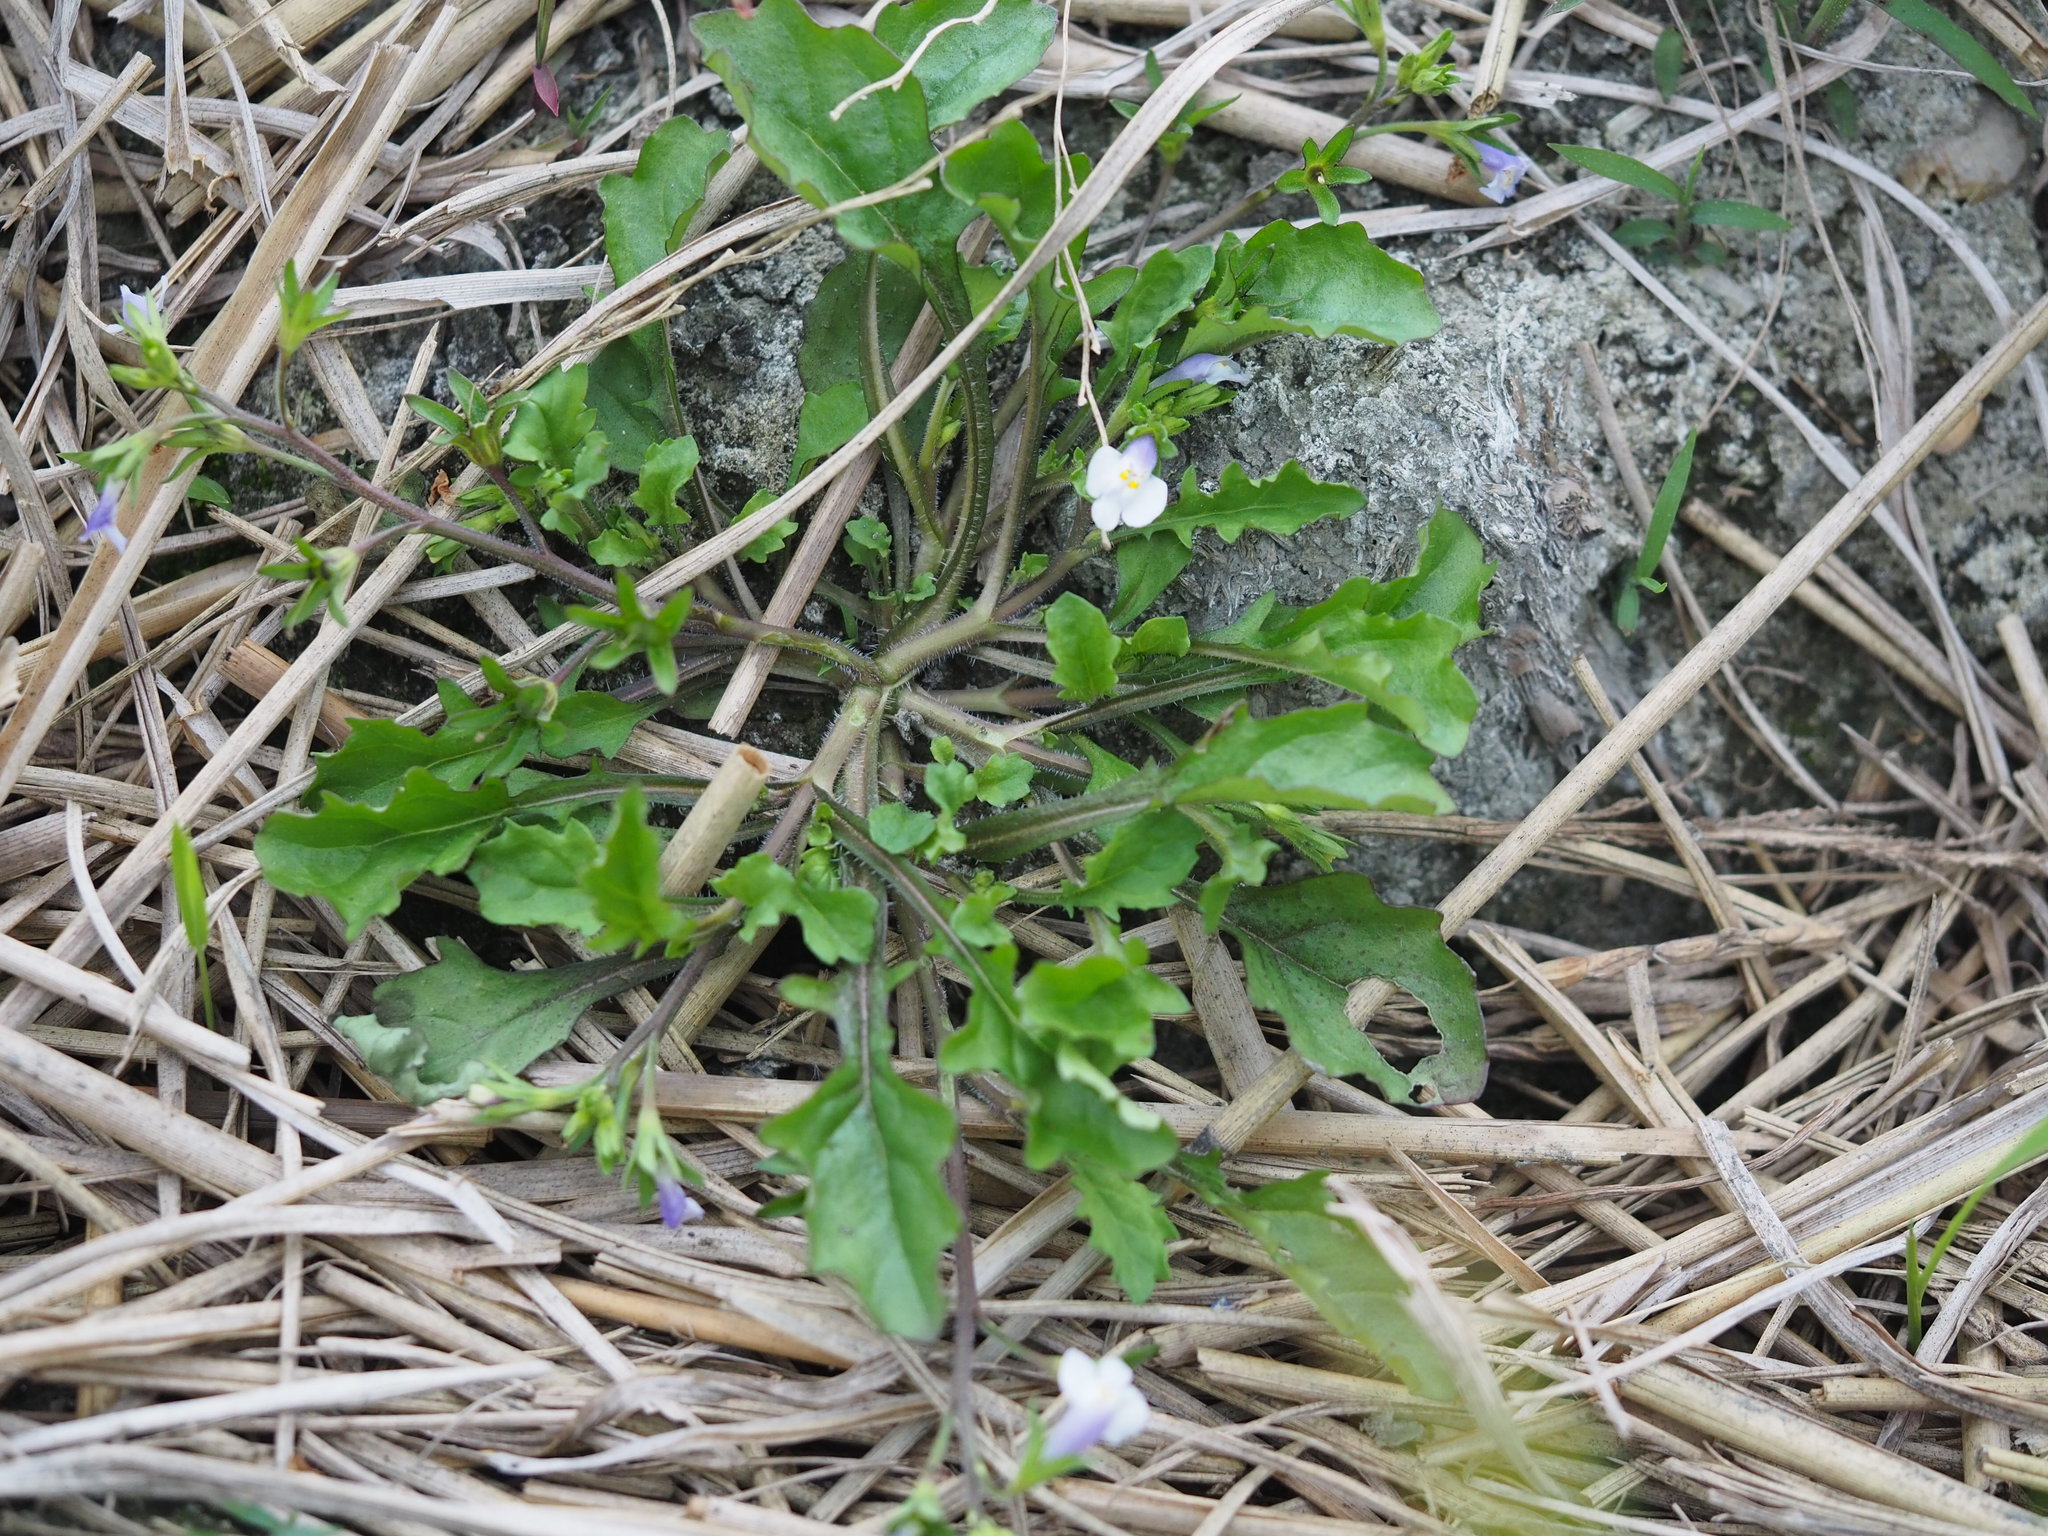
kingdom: Plantae
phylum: Tracheophyta
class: Magnoliopsida
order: Lamiales
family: Mazaceae
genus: Mazus
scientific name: Mazus pumilus
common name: Japanese mazus
